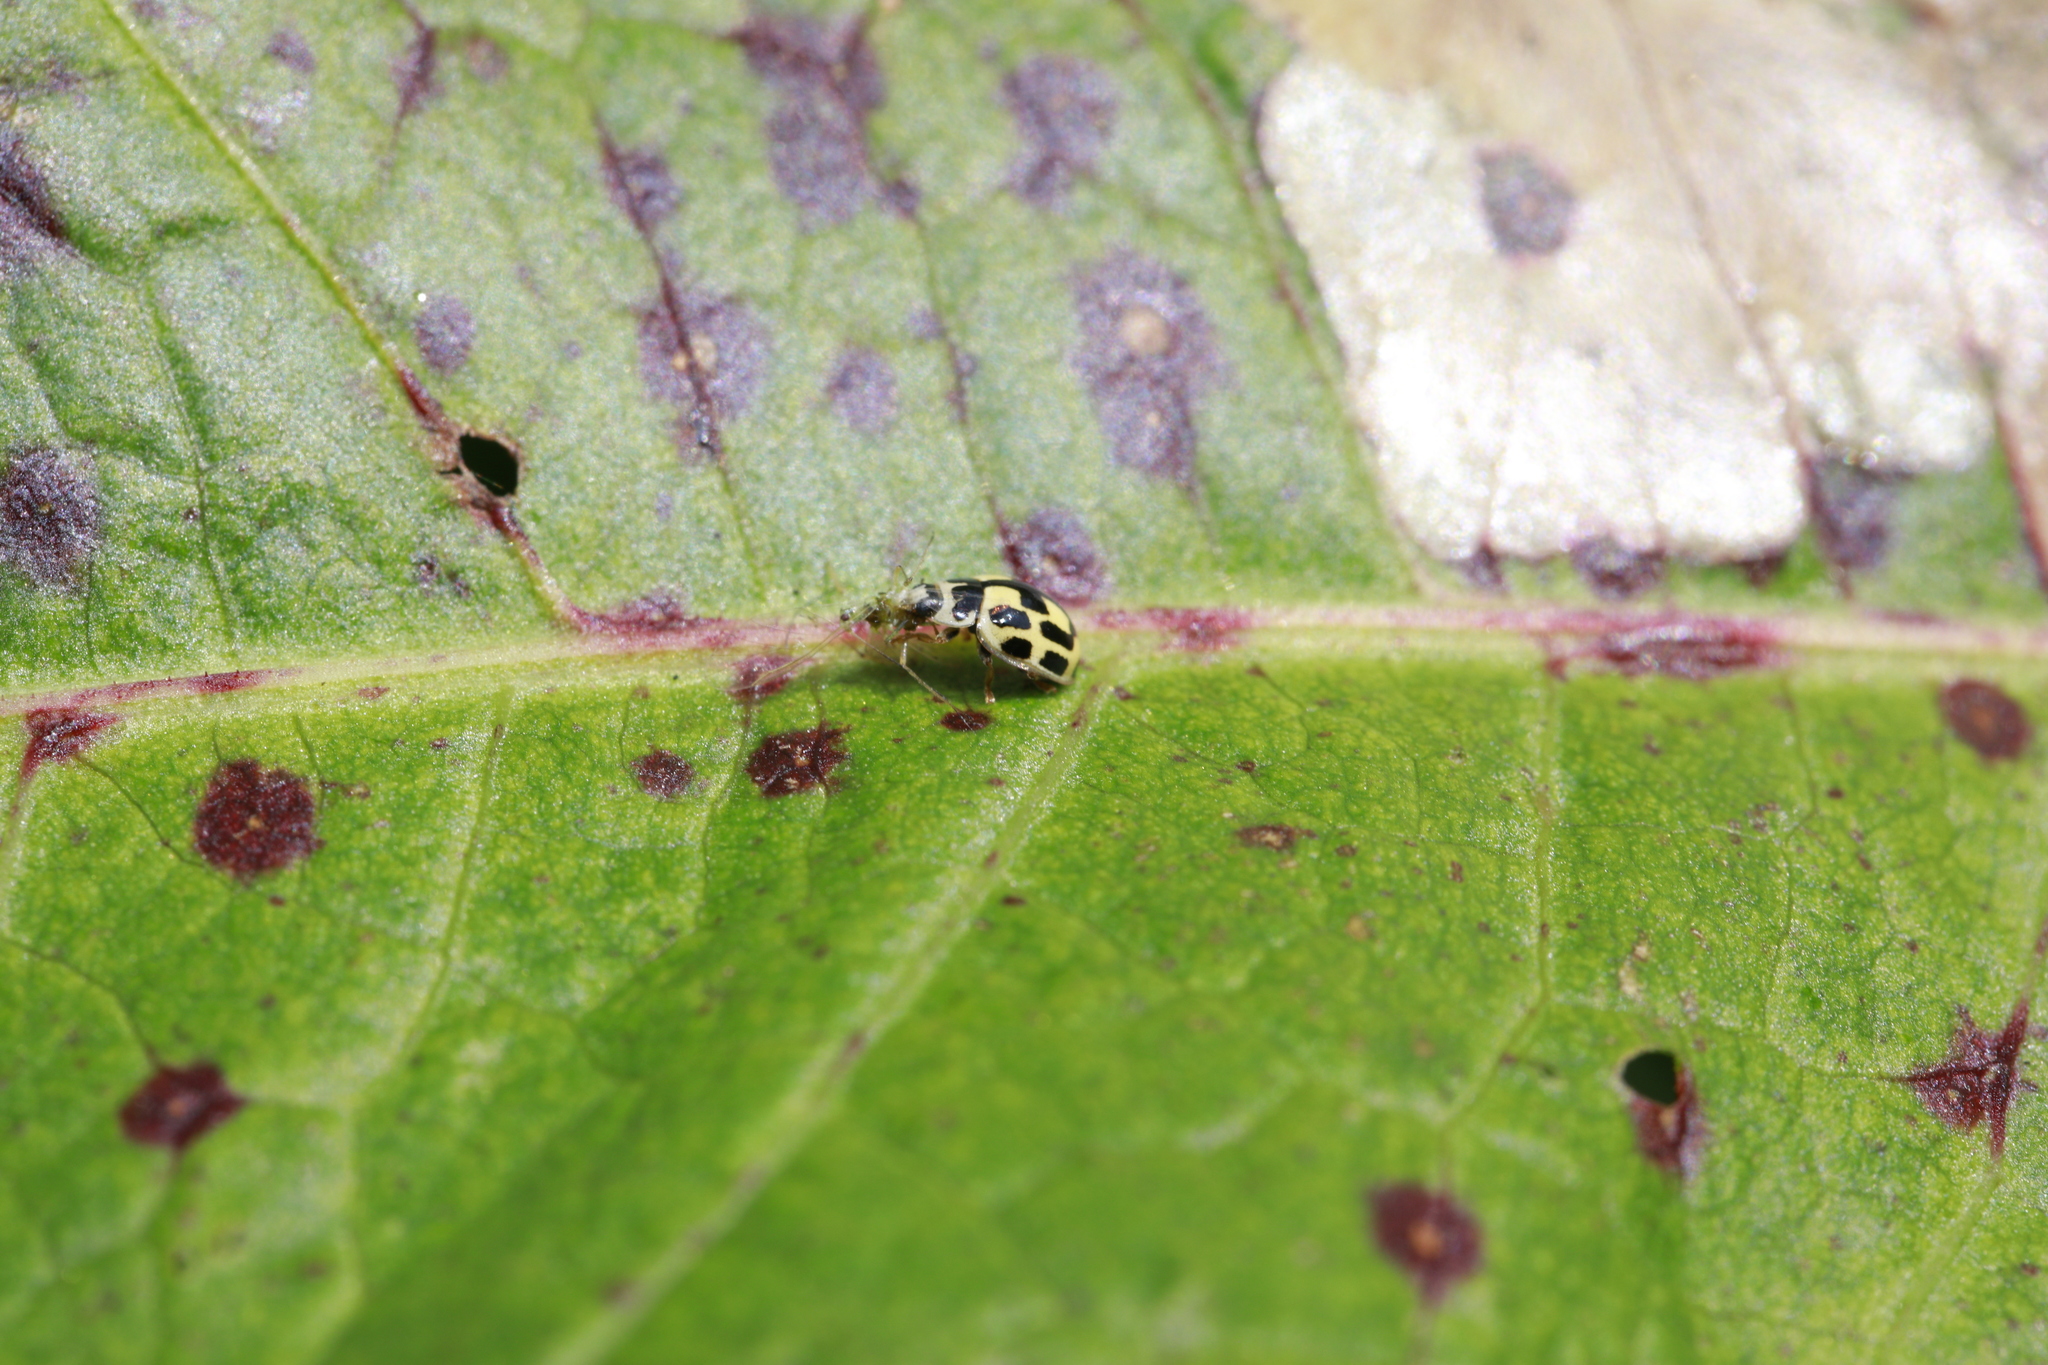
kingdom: Animalia
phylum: Arthropoda
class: Insecta
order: Coleoptera
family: Coccinellidae
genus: Propylaea
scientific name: Propylaea quatuordecimpunctata
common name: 14-spotted ladybird beetle
